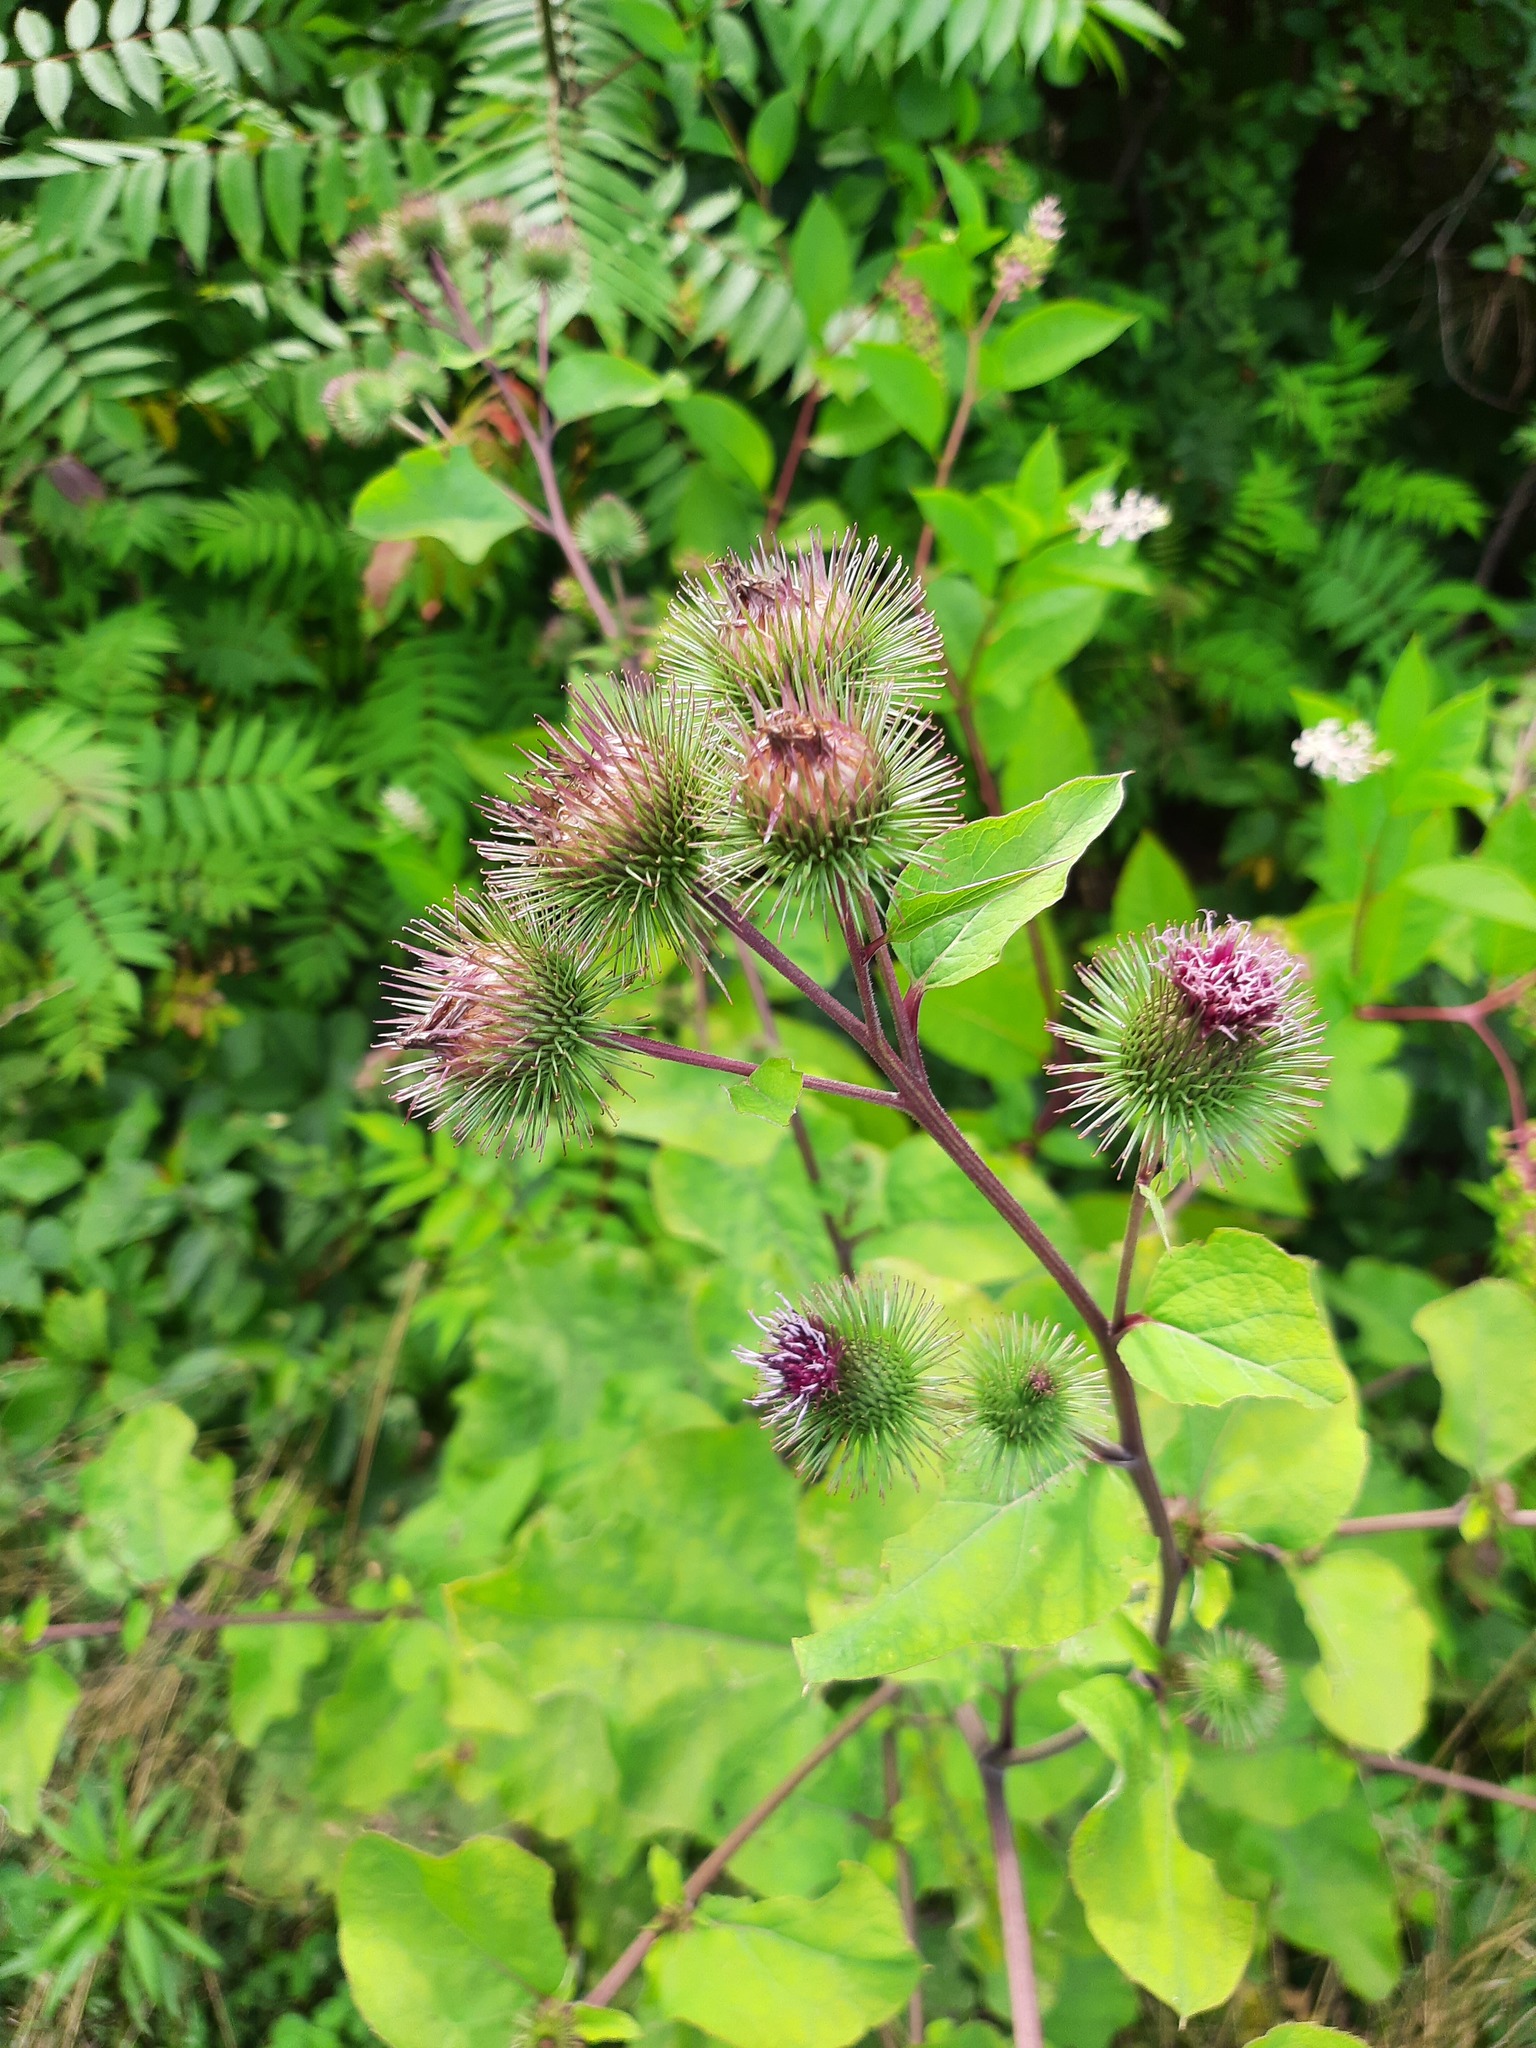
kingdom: Plantae
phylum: Tracheophyta
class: Magnoliopsida
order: Asterales
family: Asteraceae
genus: Arctium
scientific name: Arctium minus
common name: Lesser burdock
